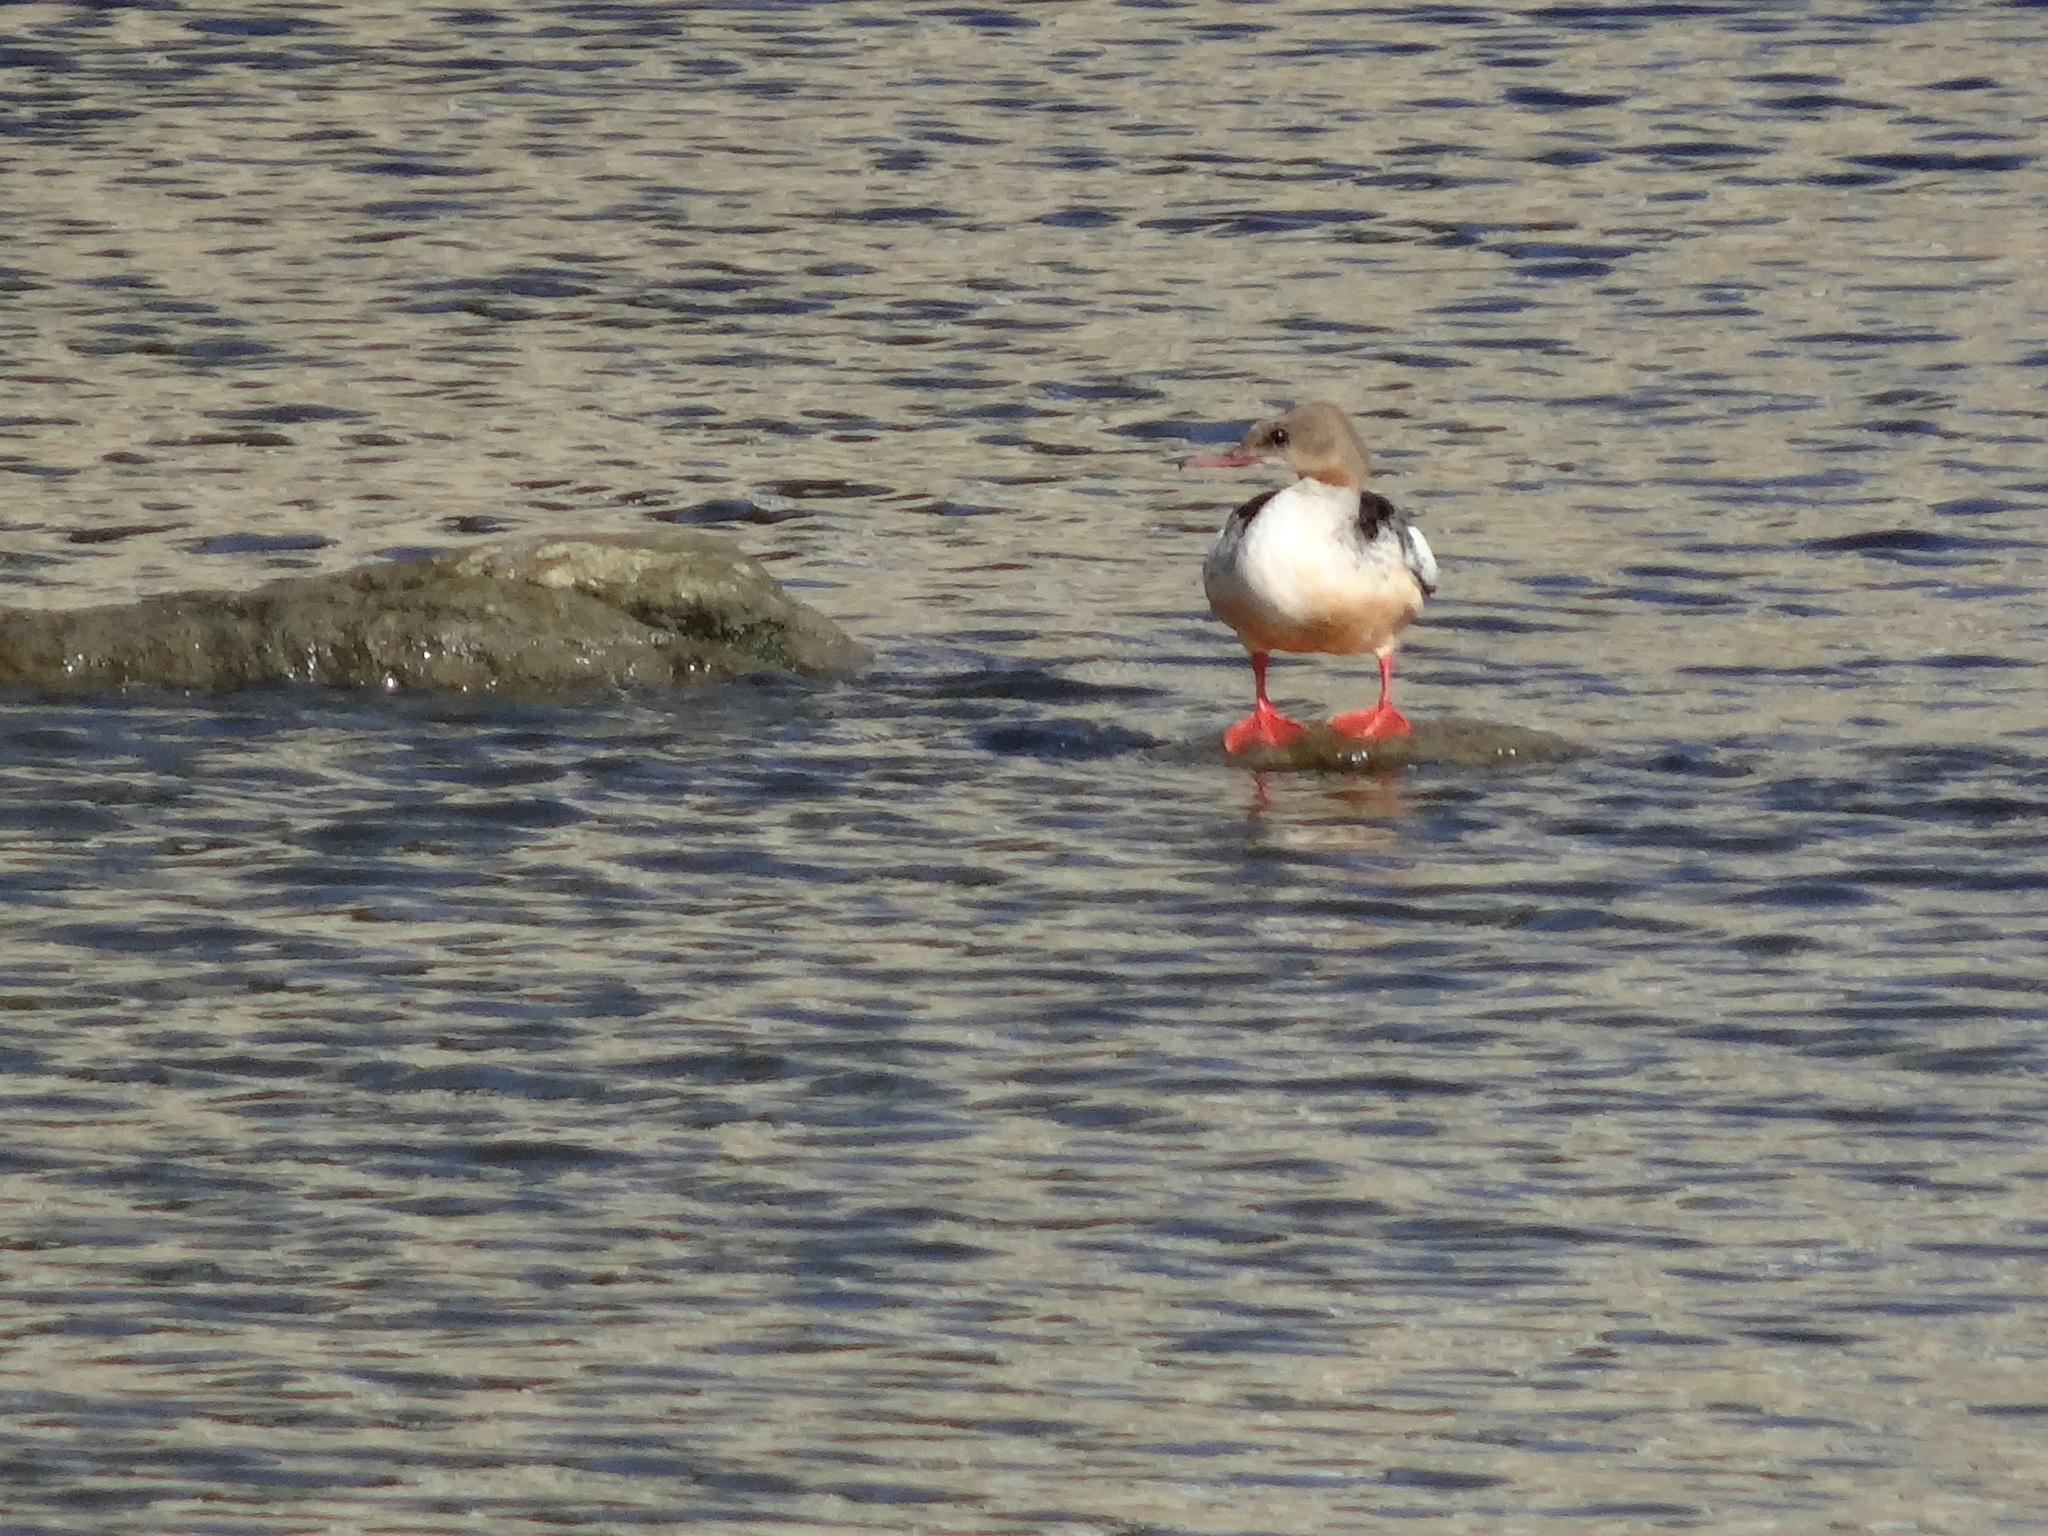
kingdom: Animalia
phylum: Chordata
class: Aves
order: Anseriformes
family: Anatidae
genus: Mergus
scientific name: Mergus merganser
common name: Common merganser
